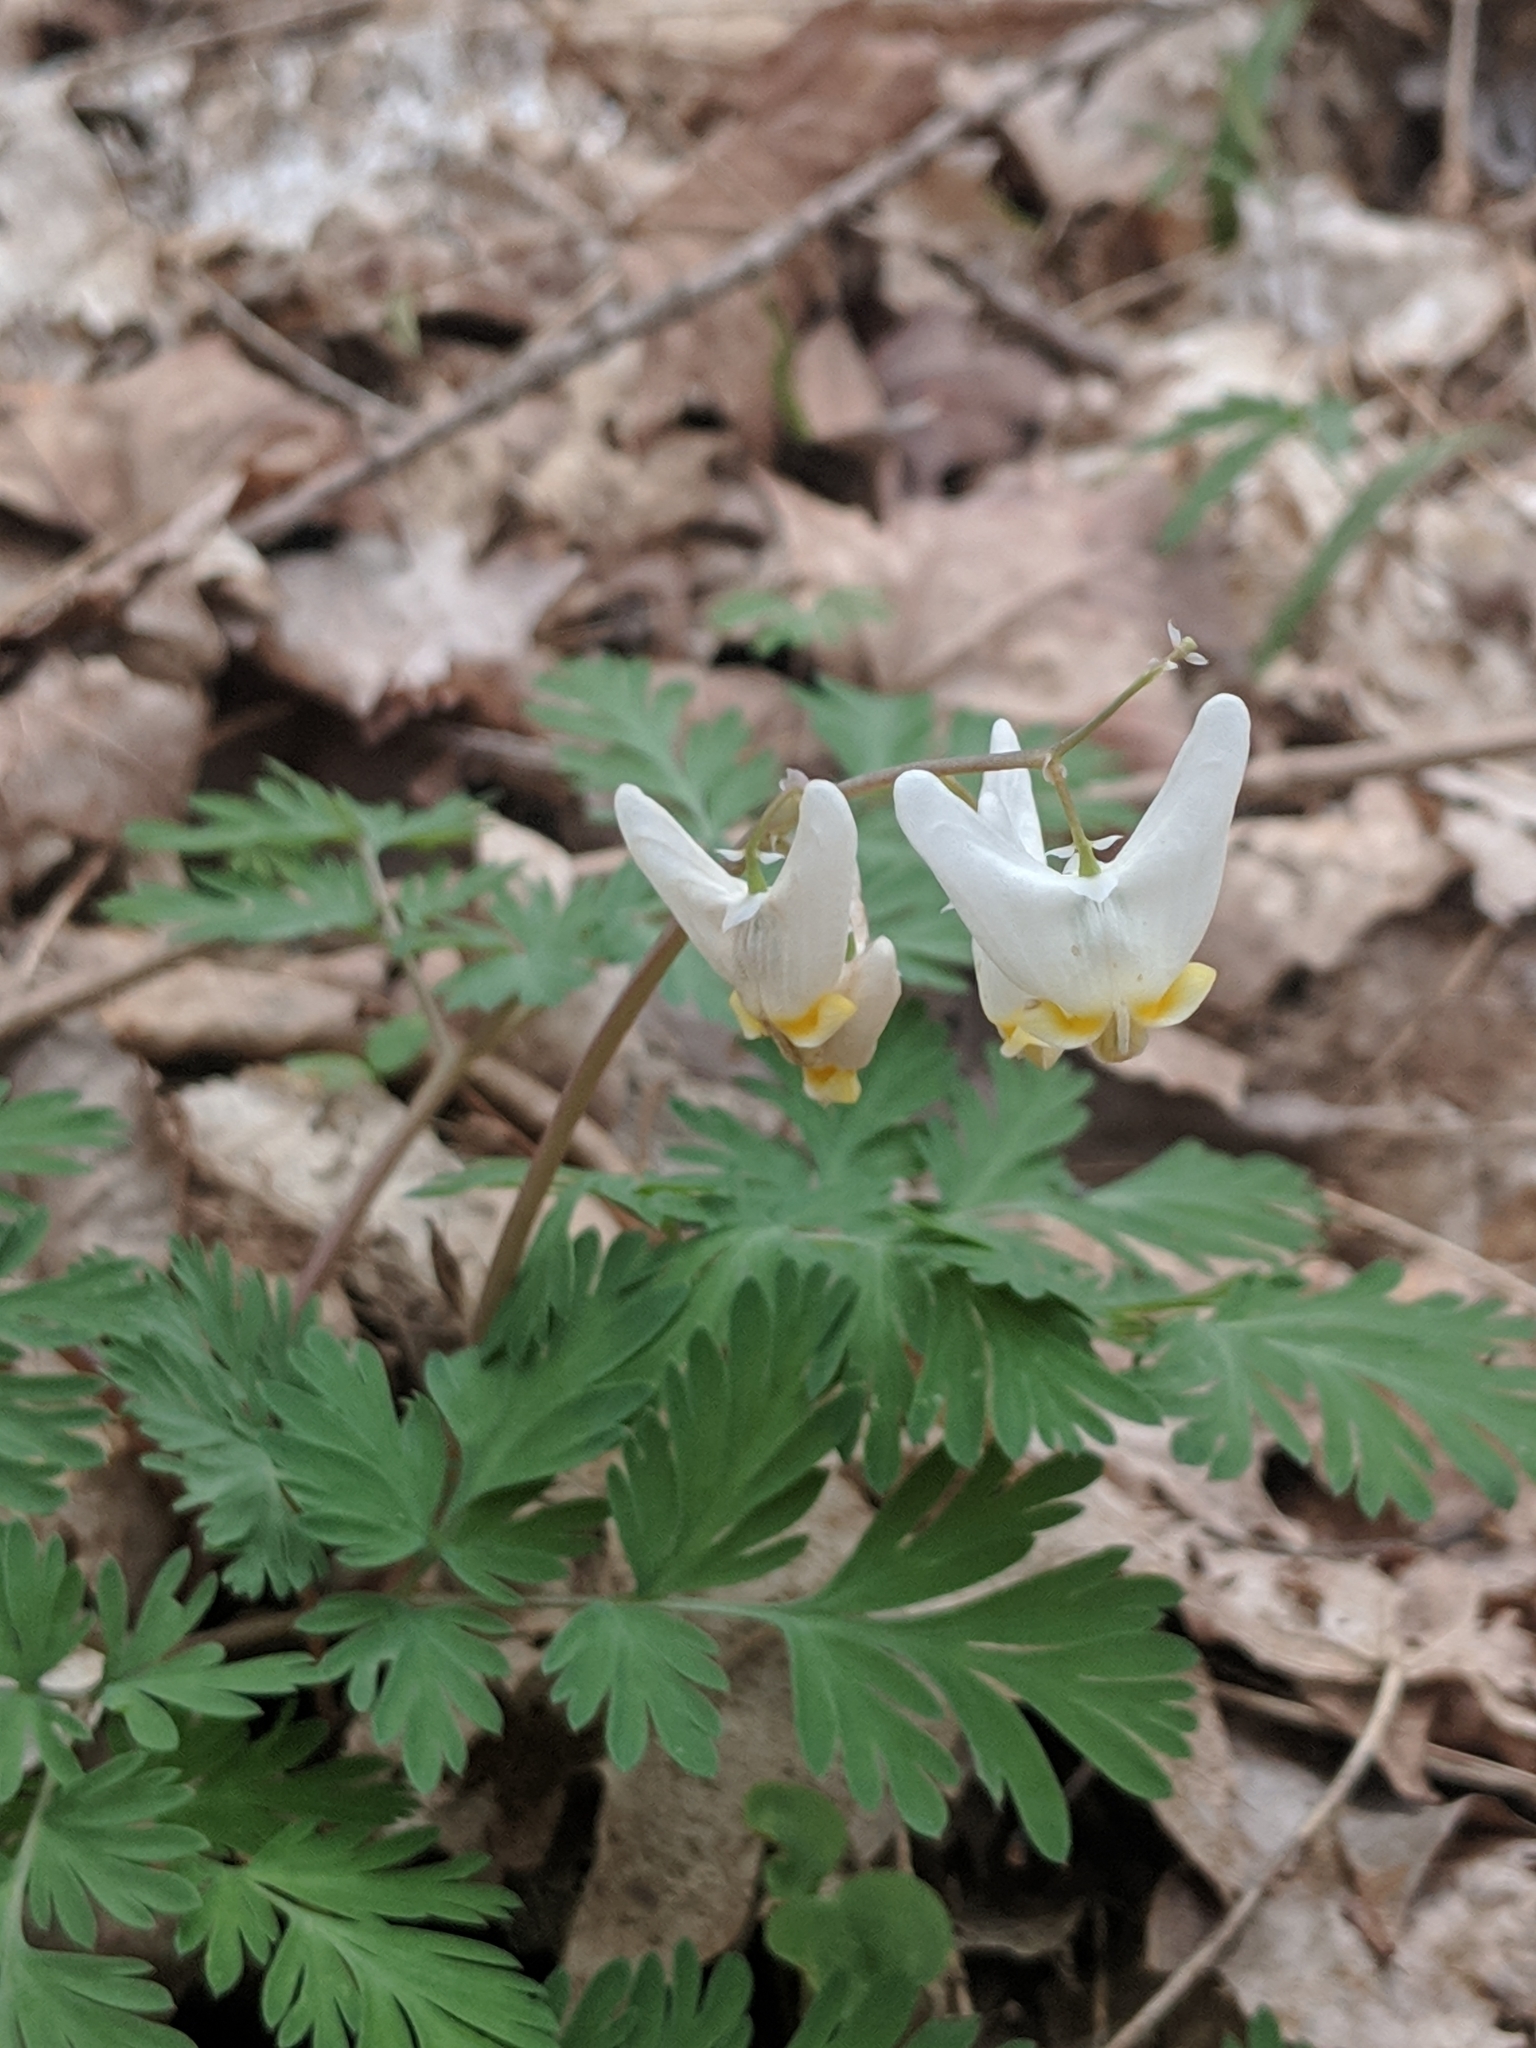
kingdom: Plantae
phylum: Tracheophyta
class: Magnoliopsida
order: Ranunculales
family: Papaveraceae
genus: Dicentra
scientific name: Dicentra cucullaria
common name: Dutchman's breeches
